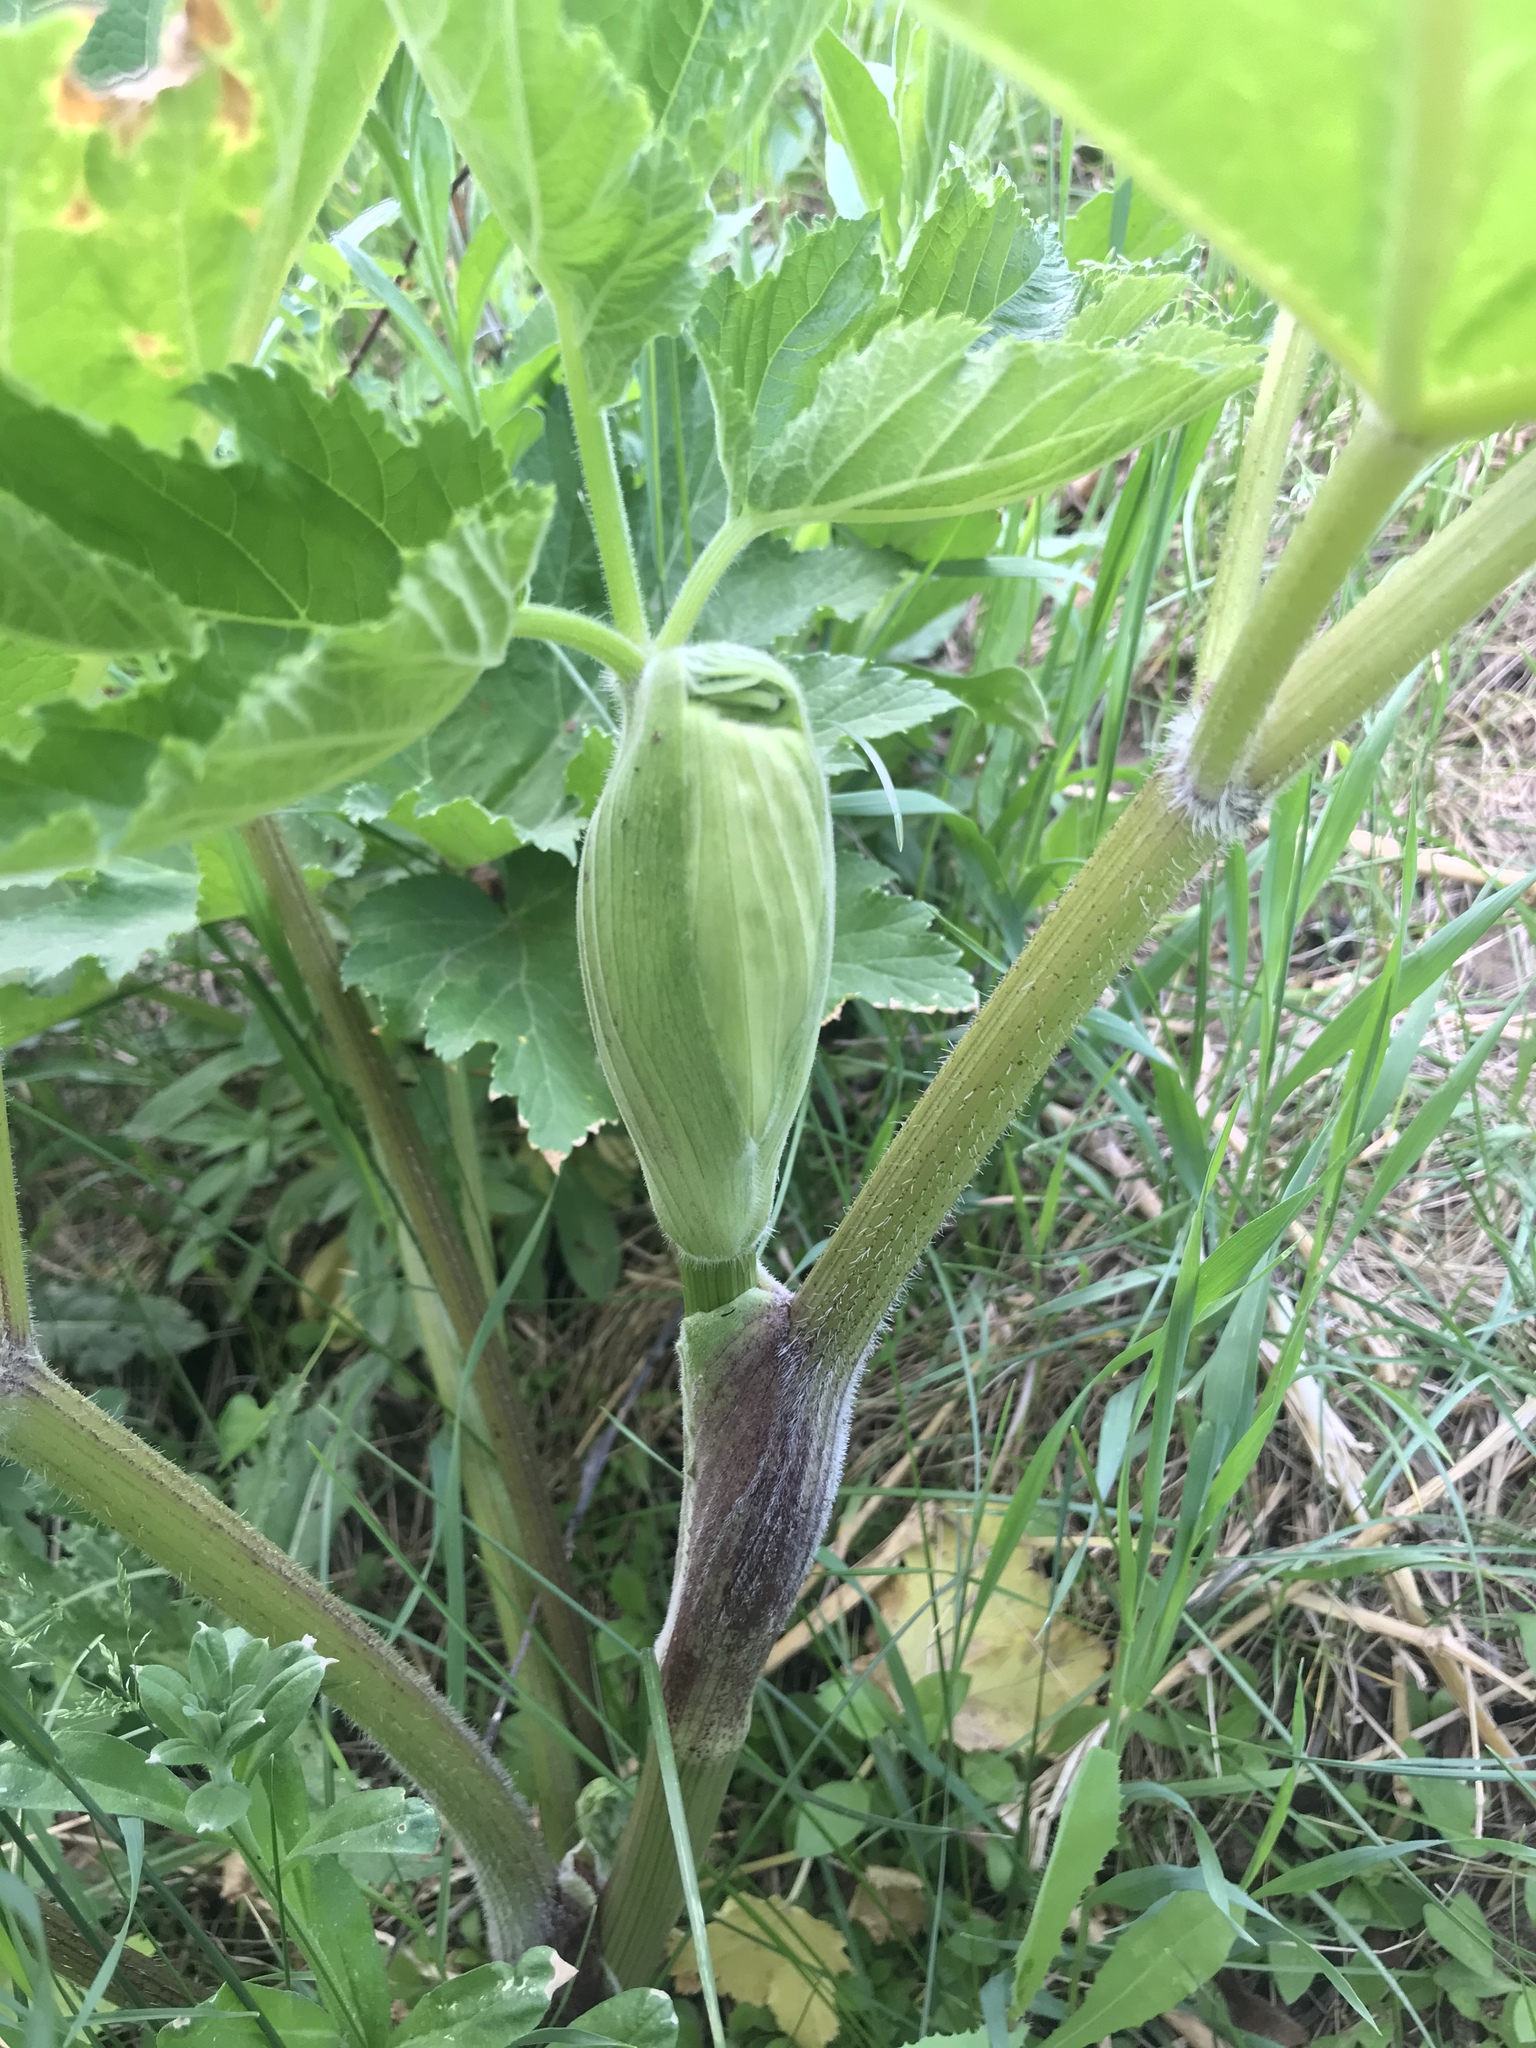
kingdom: Plantae
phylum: Tracheophyta
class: Magnoliopsida
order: Apiales
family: Apiaceae
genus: Heracleum
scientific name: Heracleum maximum
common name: American cow parsnip
